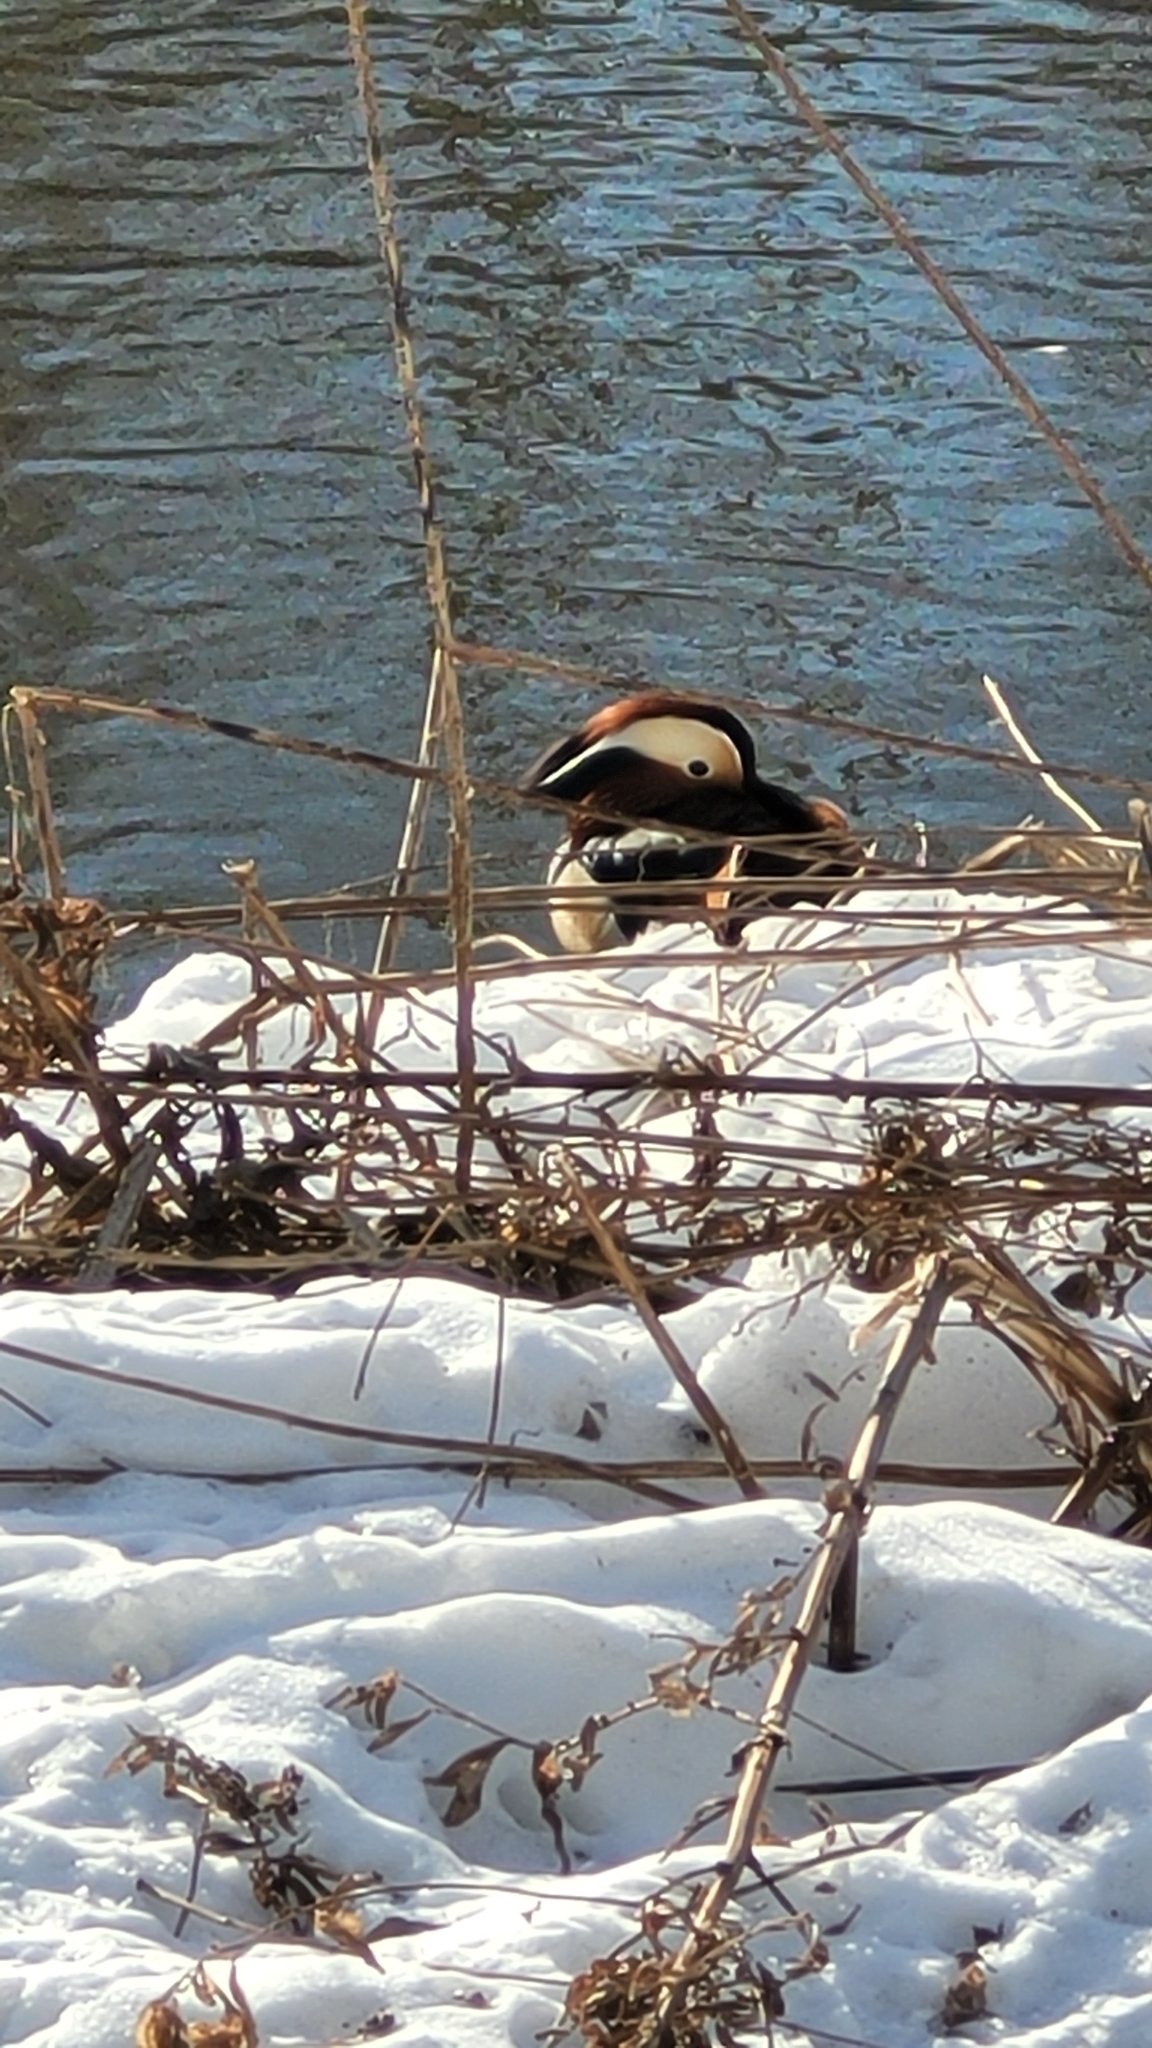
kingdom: Animalia
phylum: Chordata
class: Aves
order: Anseriformes
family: Anatidae
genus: Aix
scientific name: Aix galericulata
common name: Mandarin duck
